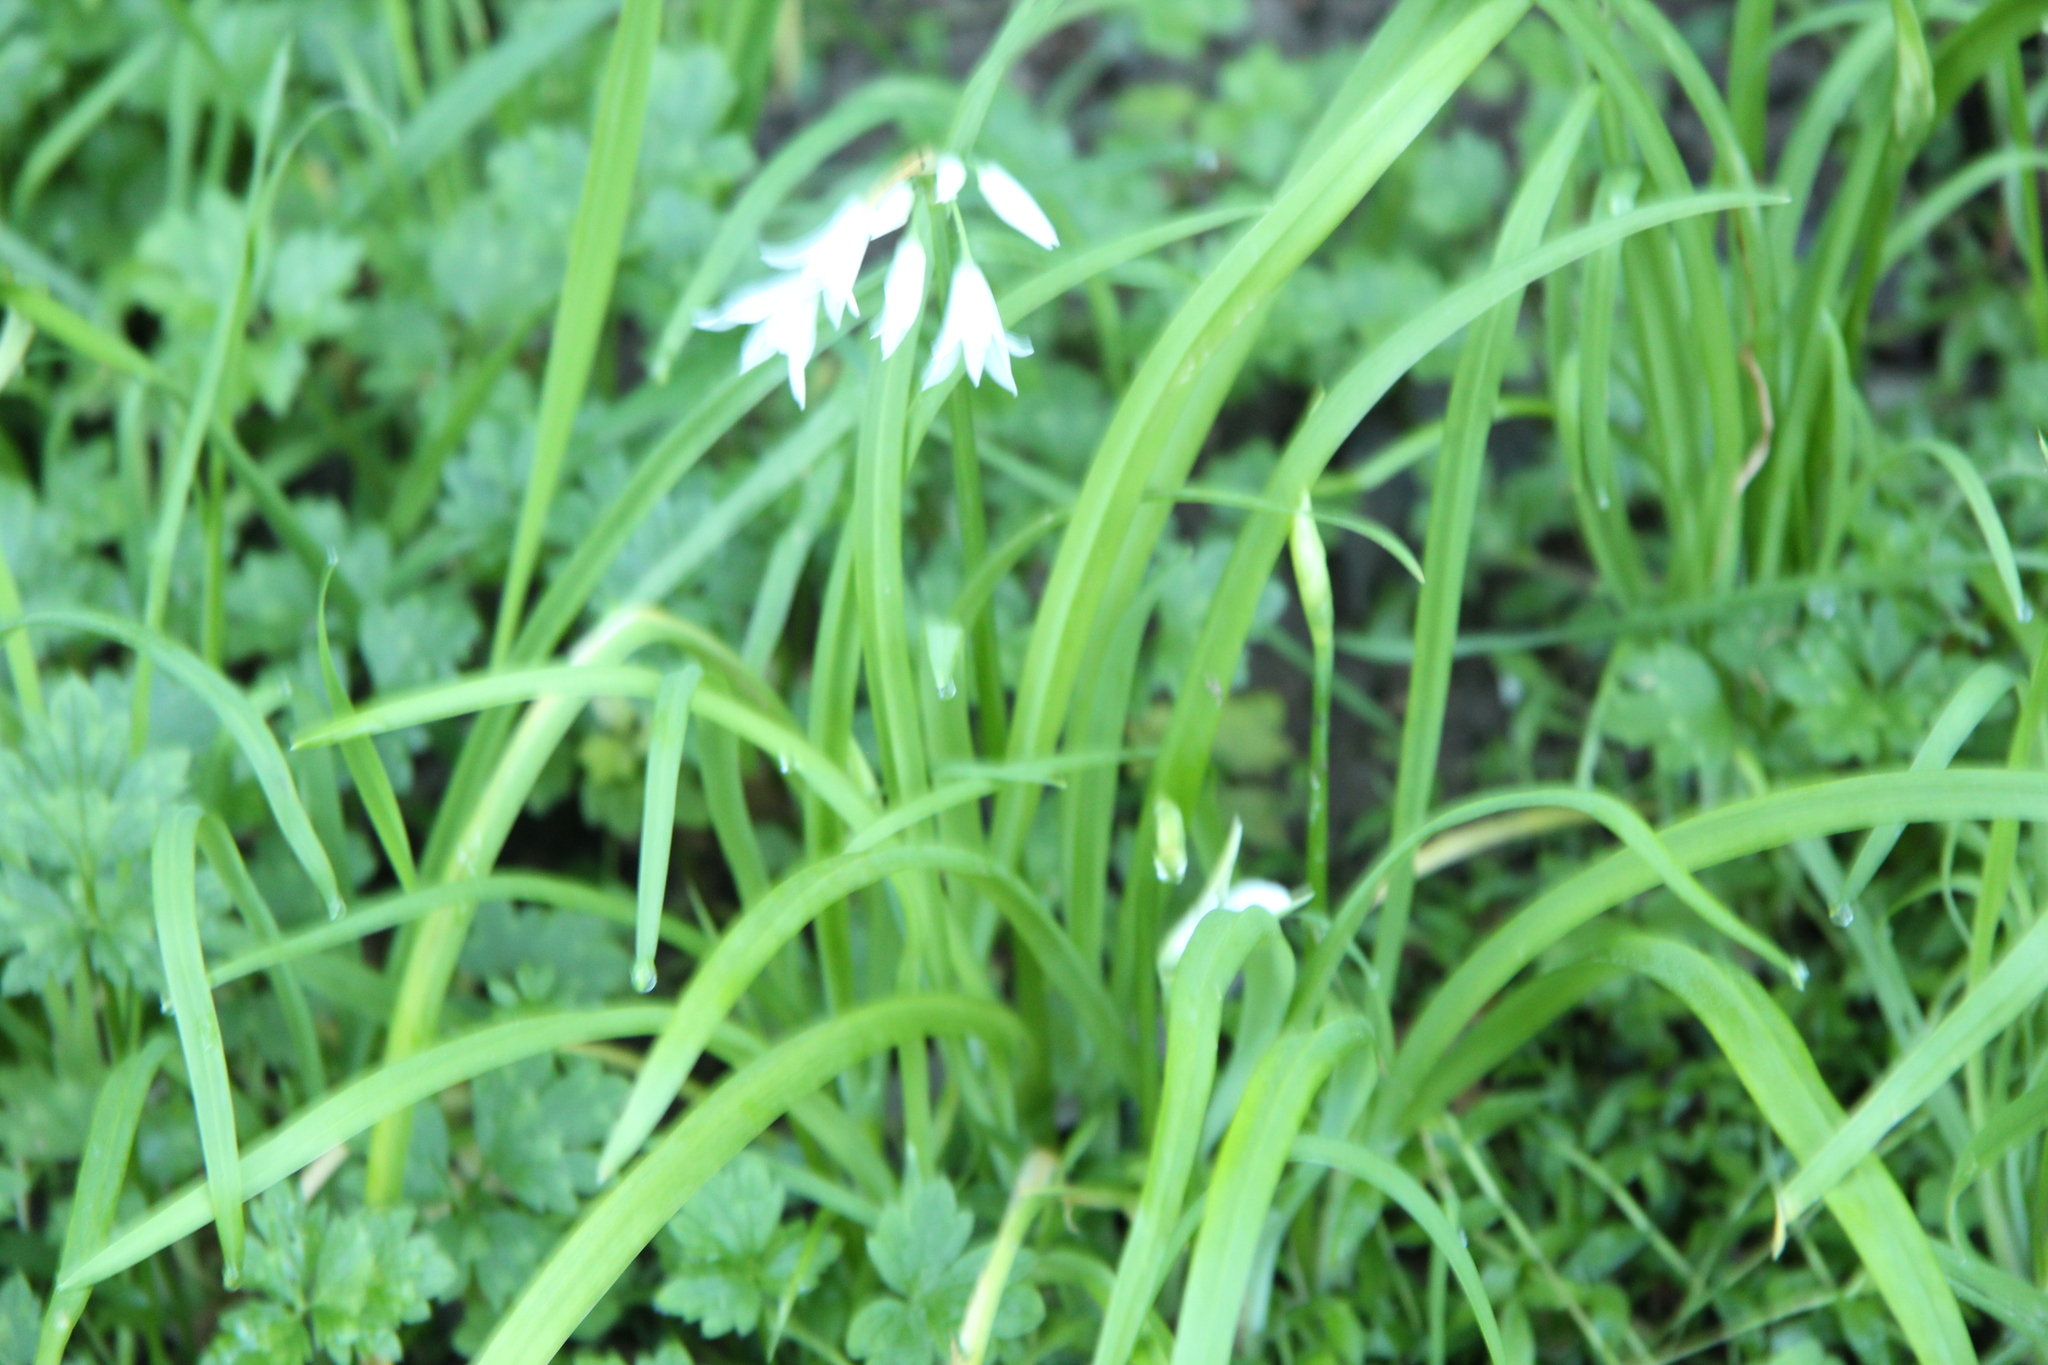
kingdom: Plantae
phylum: Tracheophyta
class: Liliopsida
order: Asparagales
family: Amaryllidaceae
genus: Allium
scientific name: Allium triquetrum
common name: Three-cornered garlic
